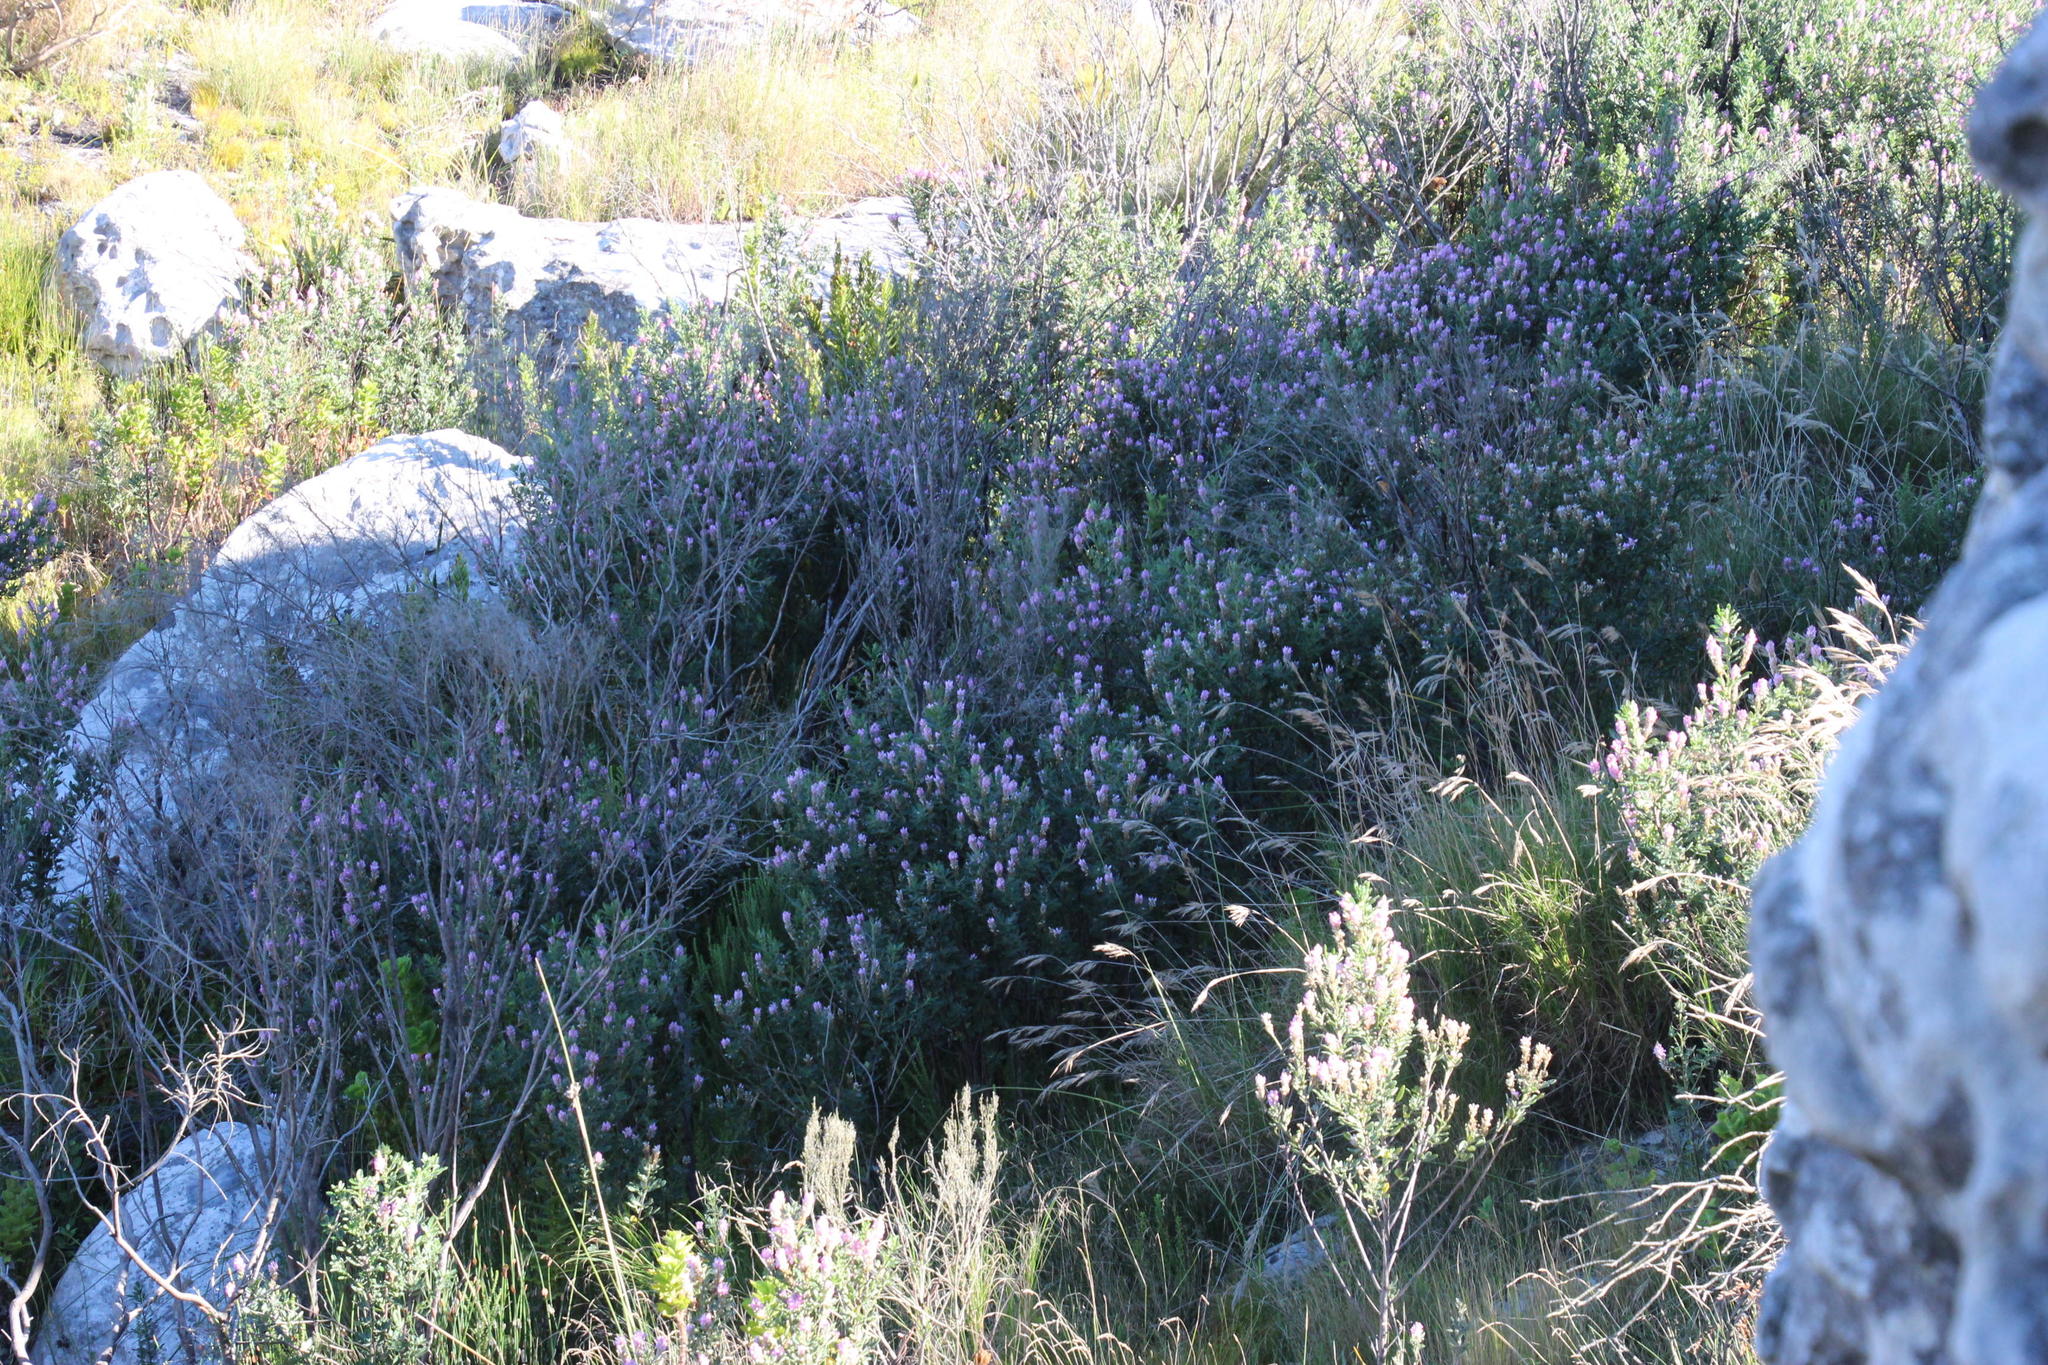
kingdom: Plantae
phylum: Tracheophyta
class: Magnoliopsida
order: Fabales
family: Fabaceae
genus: Indigofera
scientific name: Indigofera cytisoides
